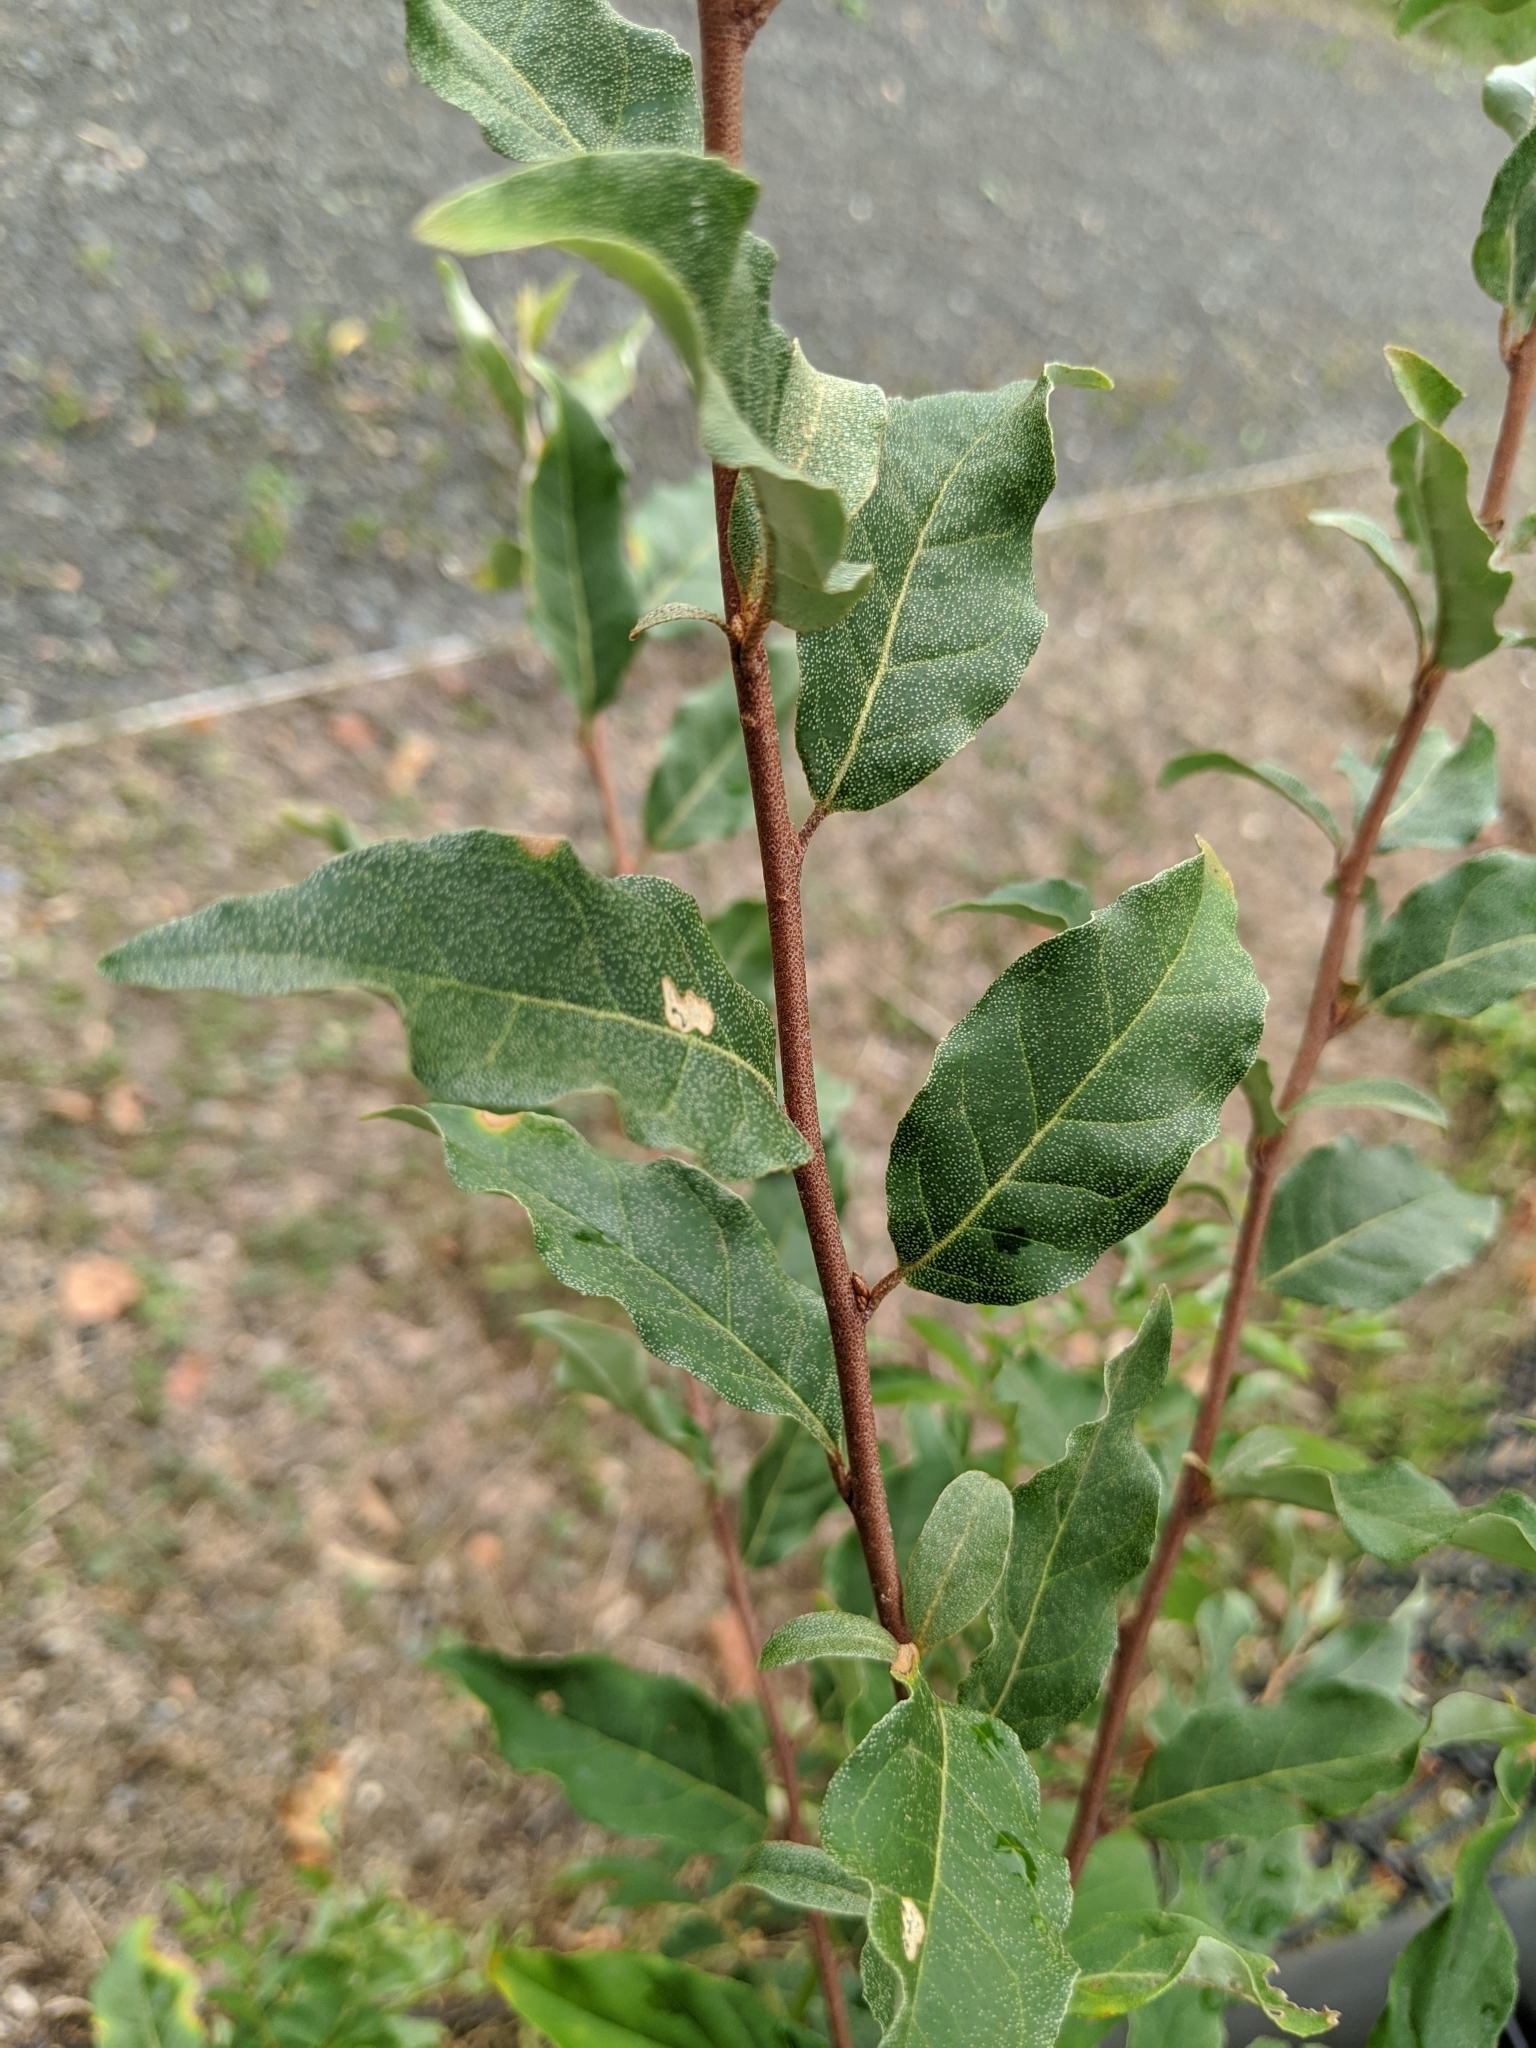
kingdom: Plantae
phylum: Tracheophyta
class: Magnoliopsida
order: Rosales
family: Elaeagnaceae
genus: Elaeagnus
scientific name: Elaeagnus umbellata
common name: Autumn olive
